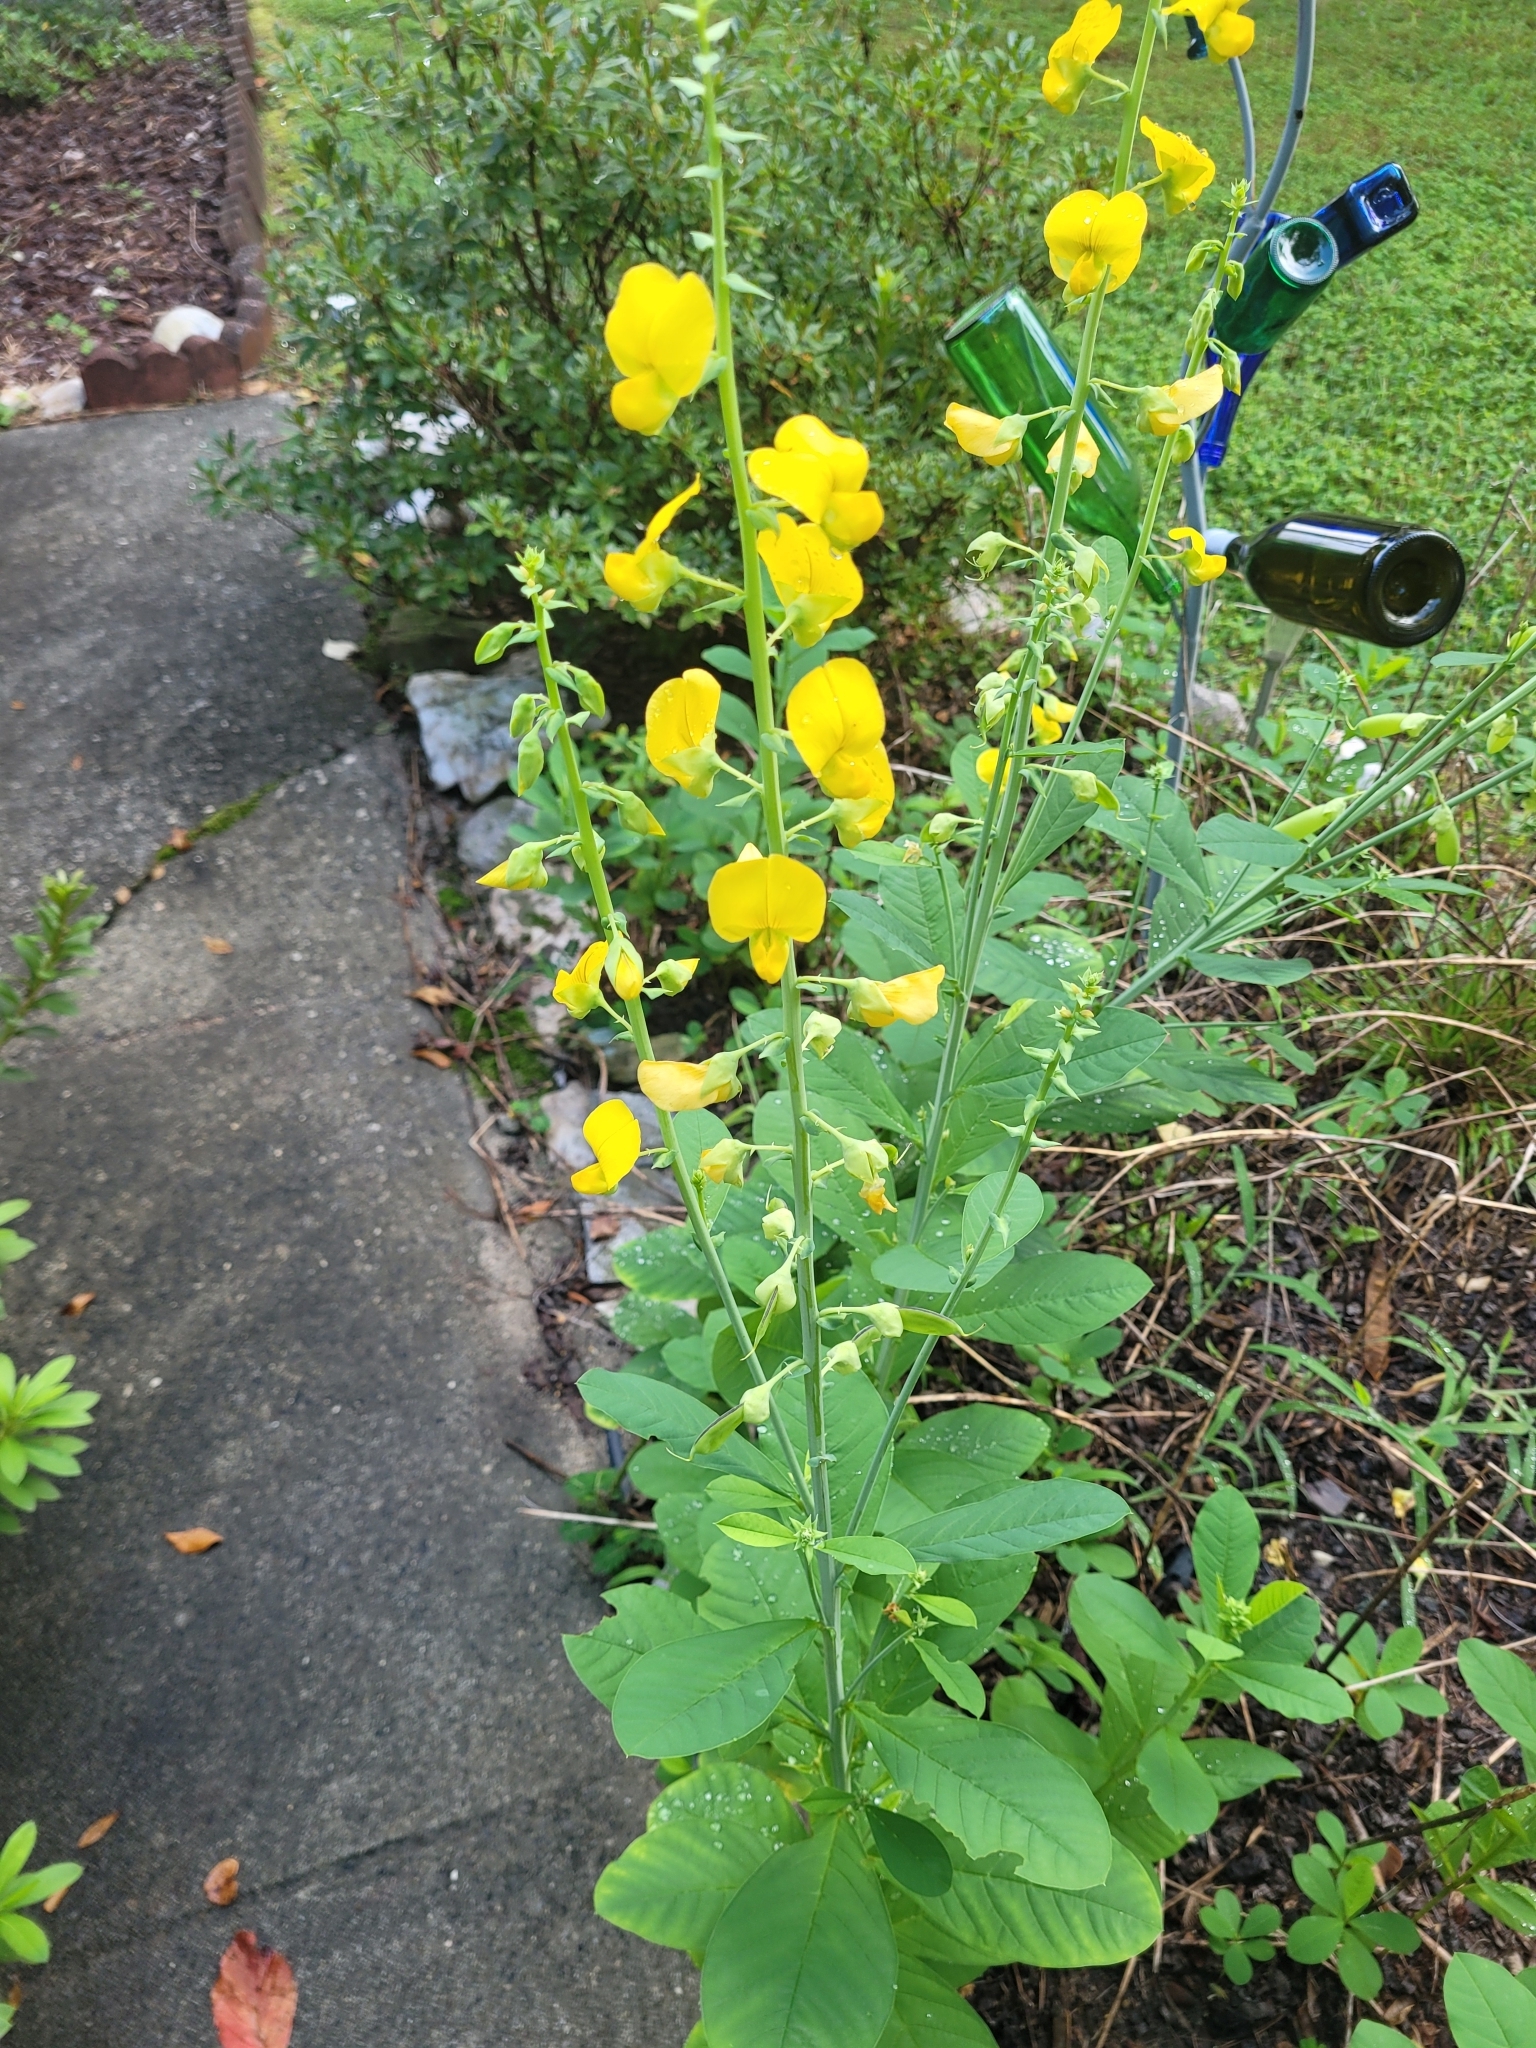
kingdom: Plantae
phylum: Tracheophyta
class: Magnoliopsida
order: Fabales
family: Fabaceae
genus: Crotalaria
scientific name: Crotalaria spectabilis
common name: Showy rattlebox
